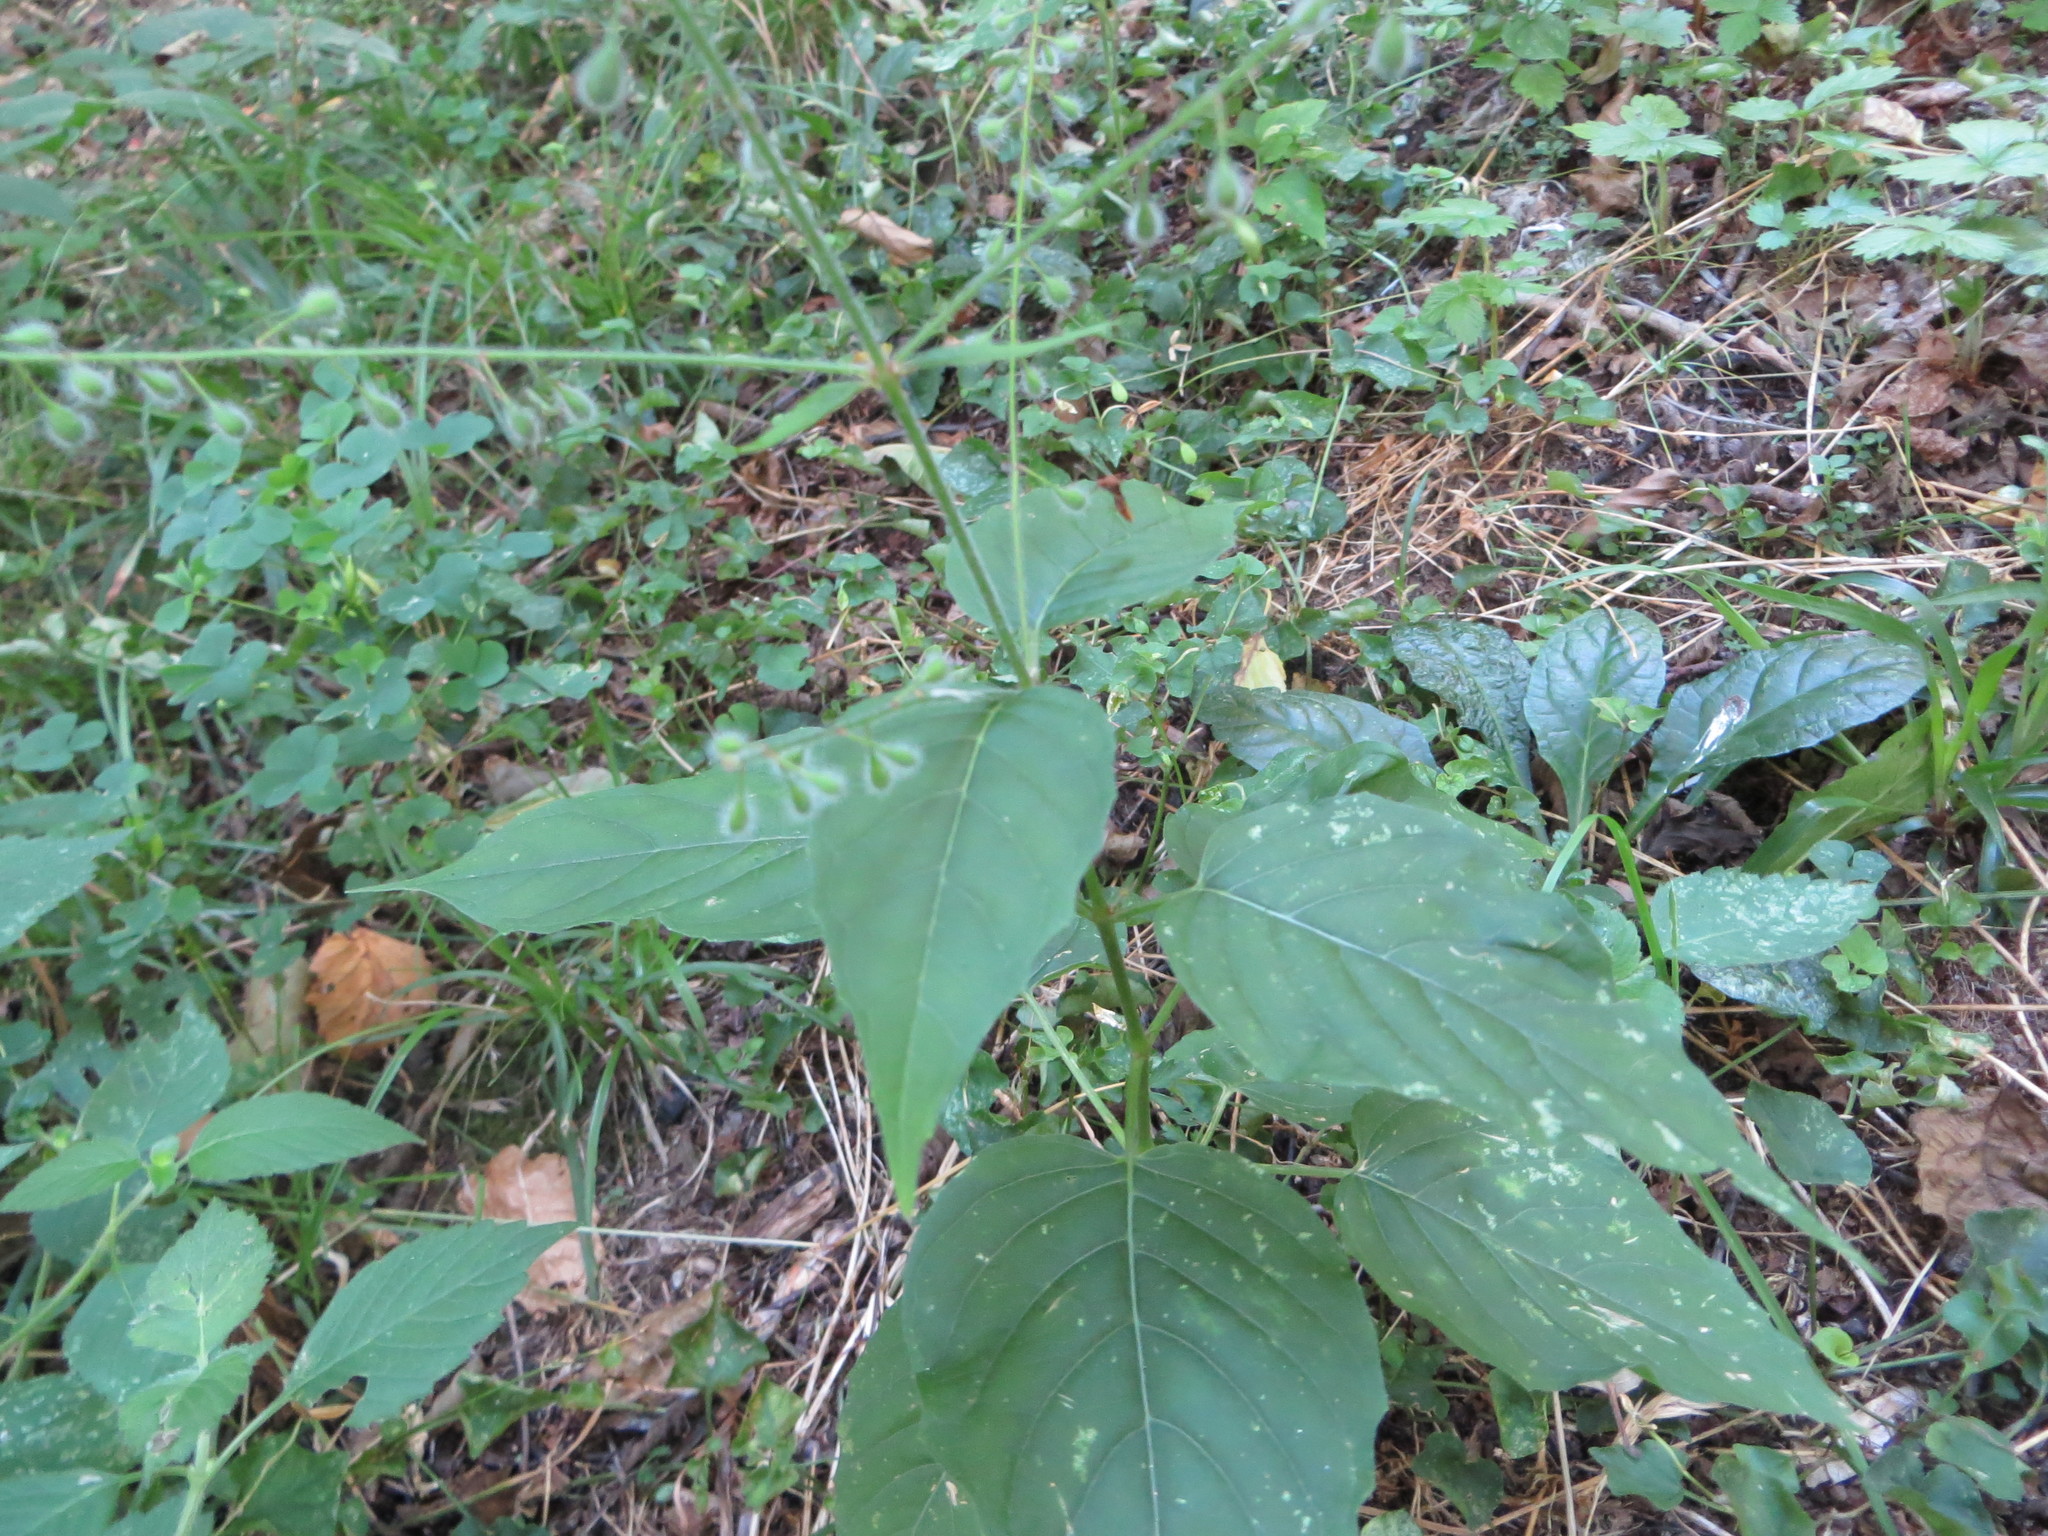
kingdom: Plantae
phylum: Tracheophyta
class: Magnoliopsida
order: Myrtales
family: Onagraceae
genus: Circaea
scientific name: Circaea lutetiana
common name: Enchanter's-nightshade
